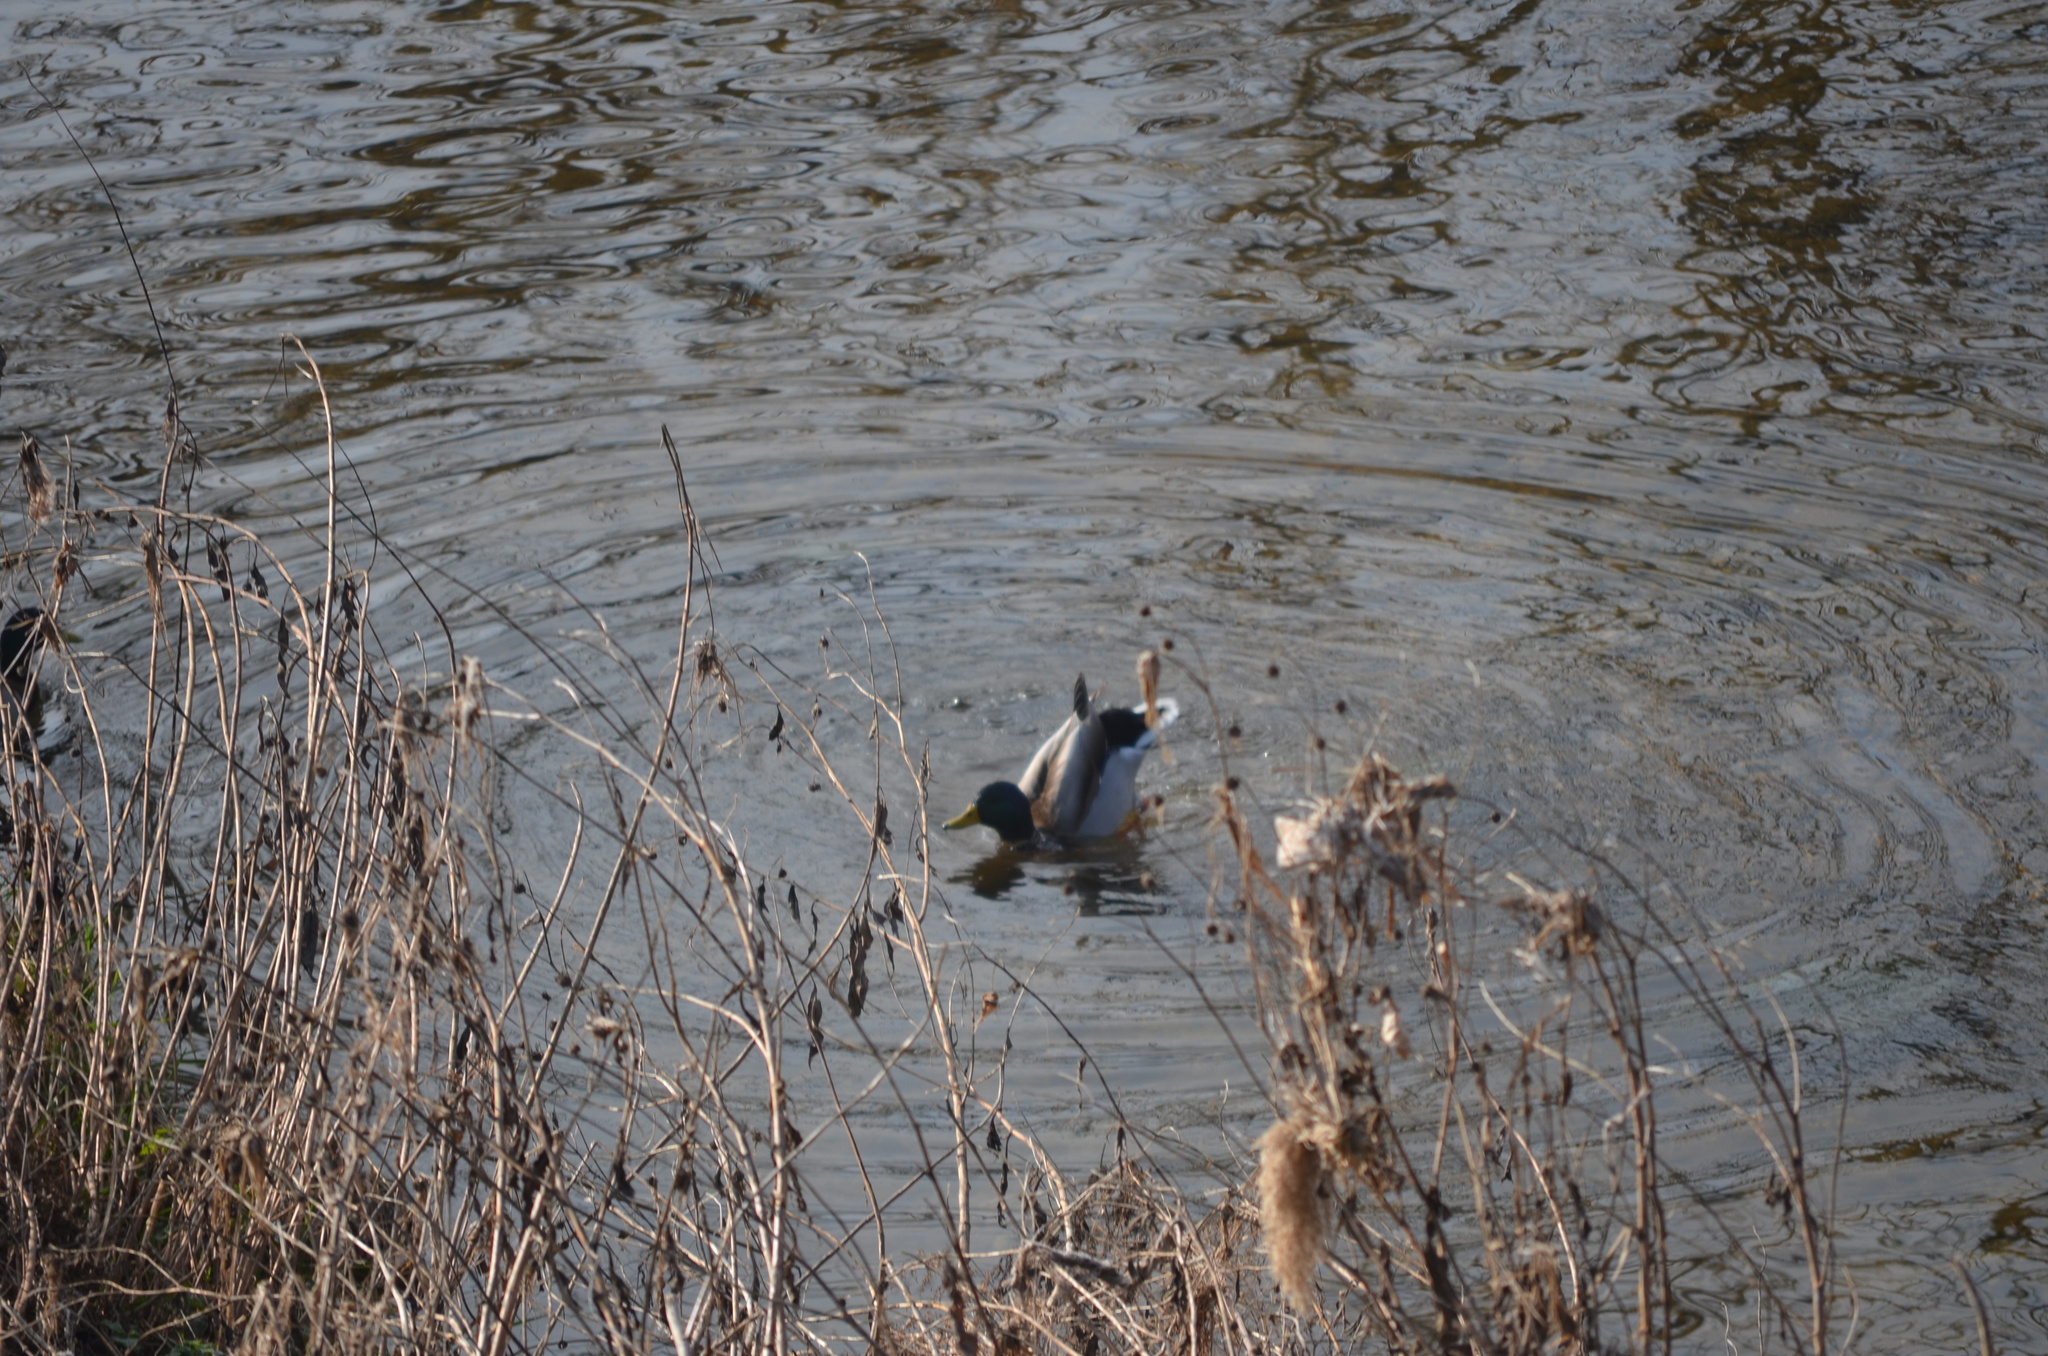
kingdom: Animalia
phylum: Chordata
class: Aves
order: Anseriformes
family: Anatidae
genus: Anas
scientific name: Anas platyrhynchos
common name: Mallard
